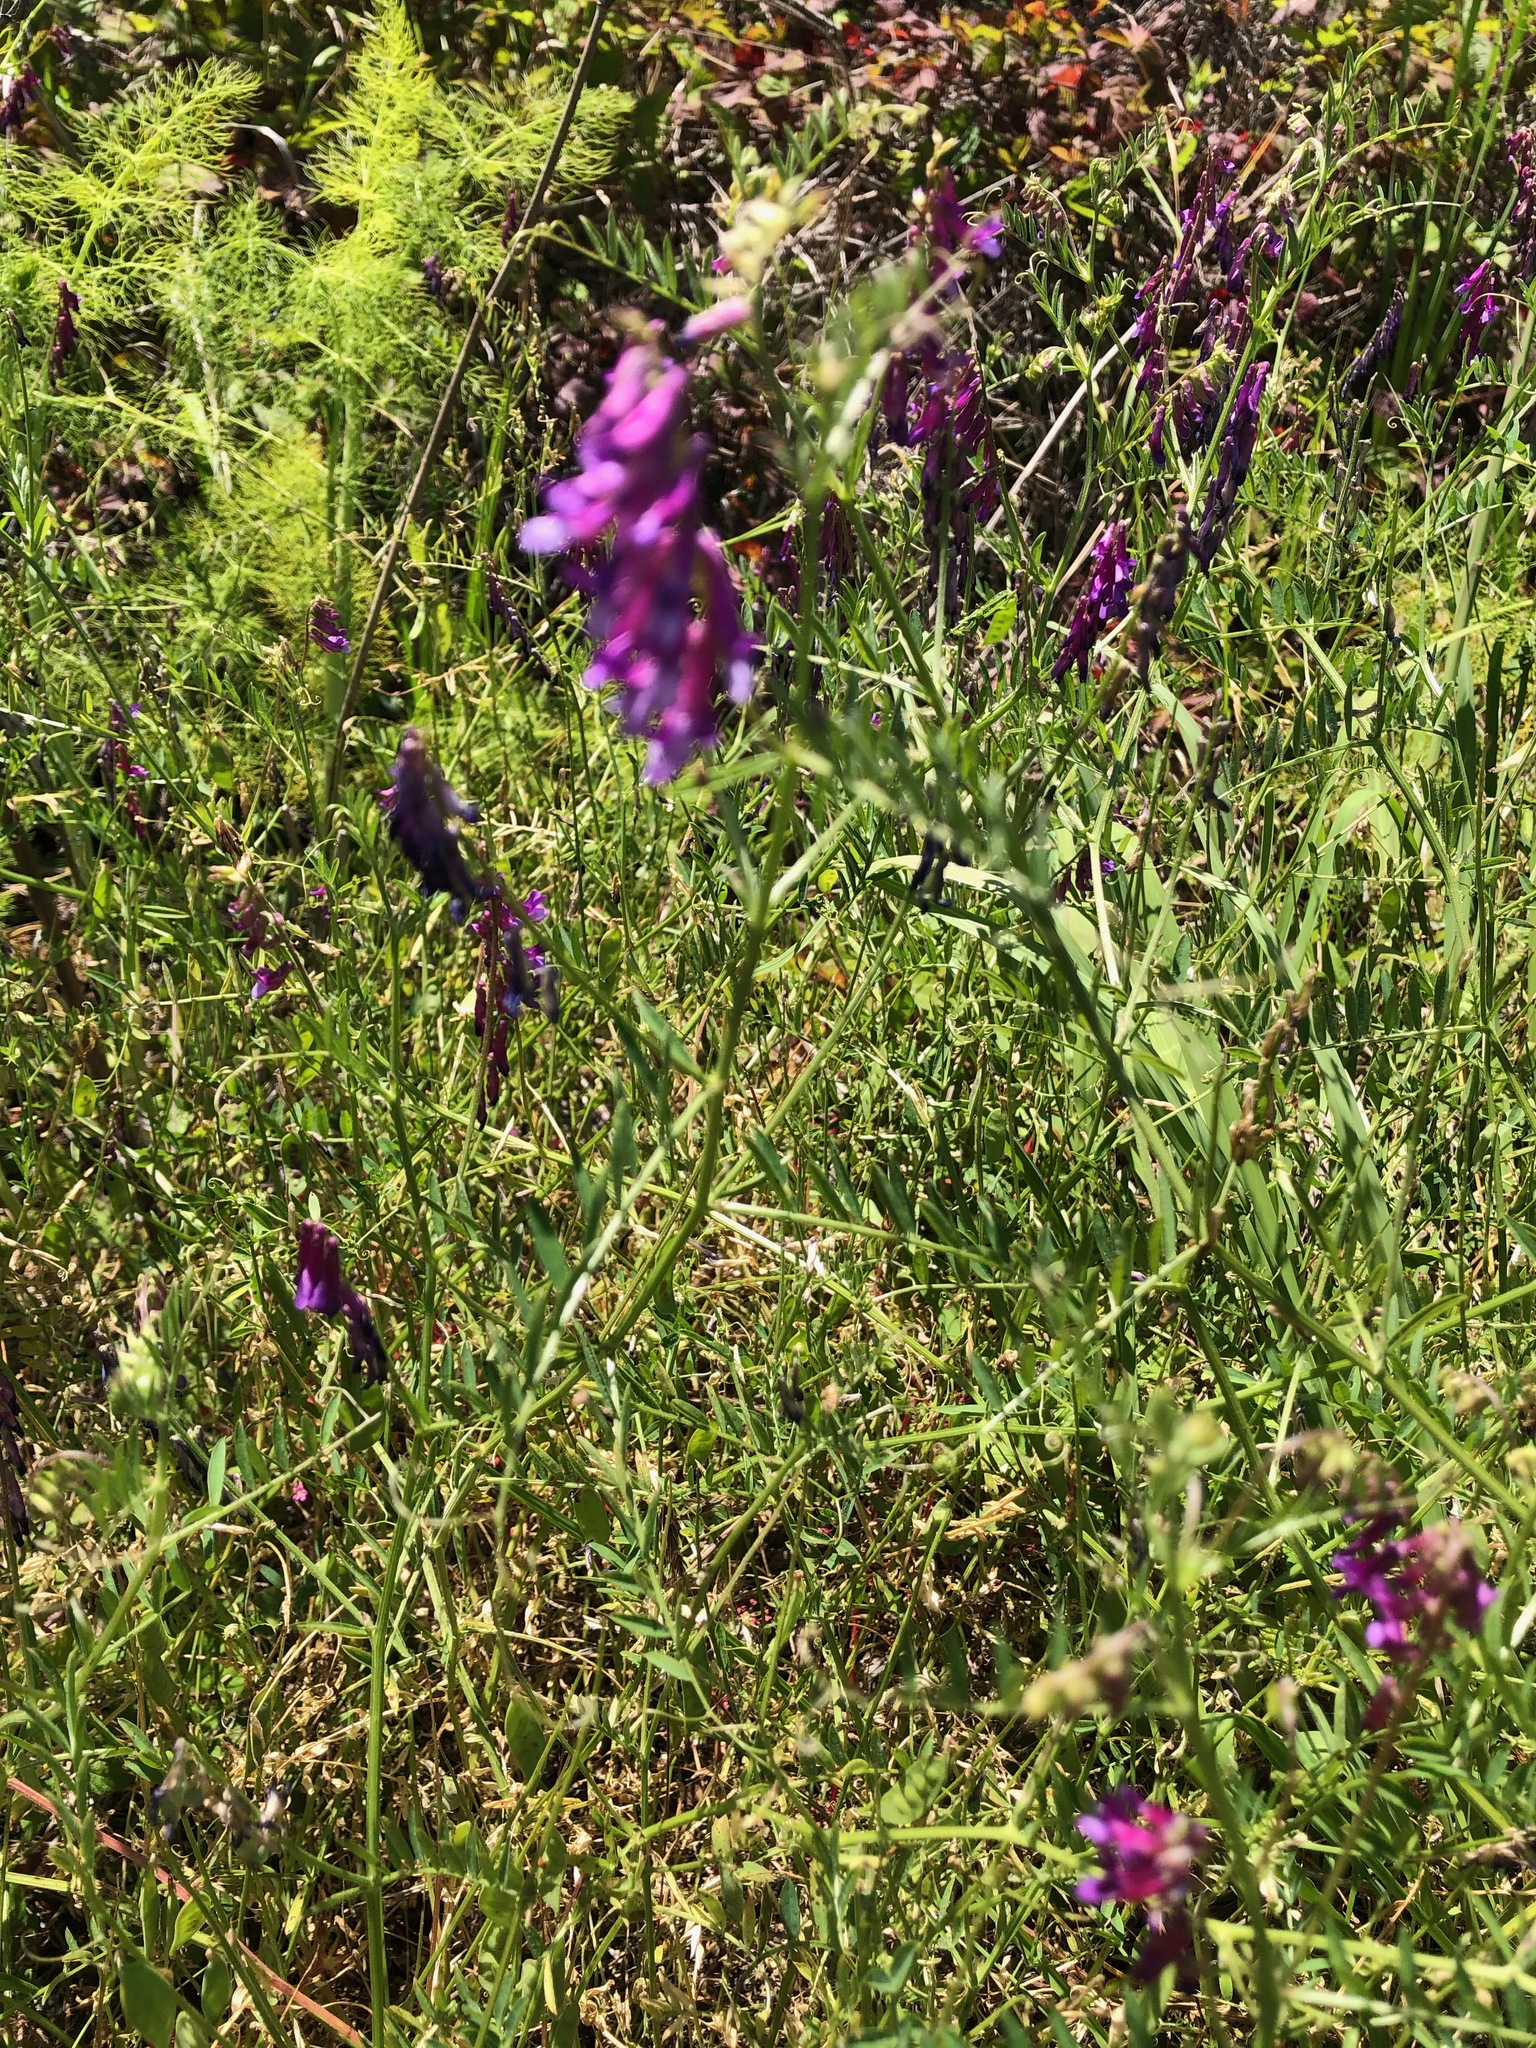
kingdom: Plantae
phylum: Tracheophyta
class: Magnoliopsida
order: Fabales
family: Fabaceae
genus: Vicia
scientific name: Vicia villosa
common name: Fodder vetch
